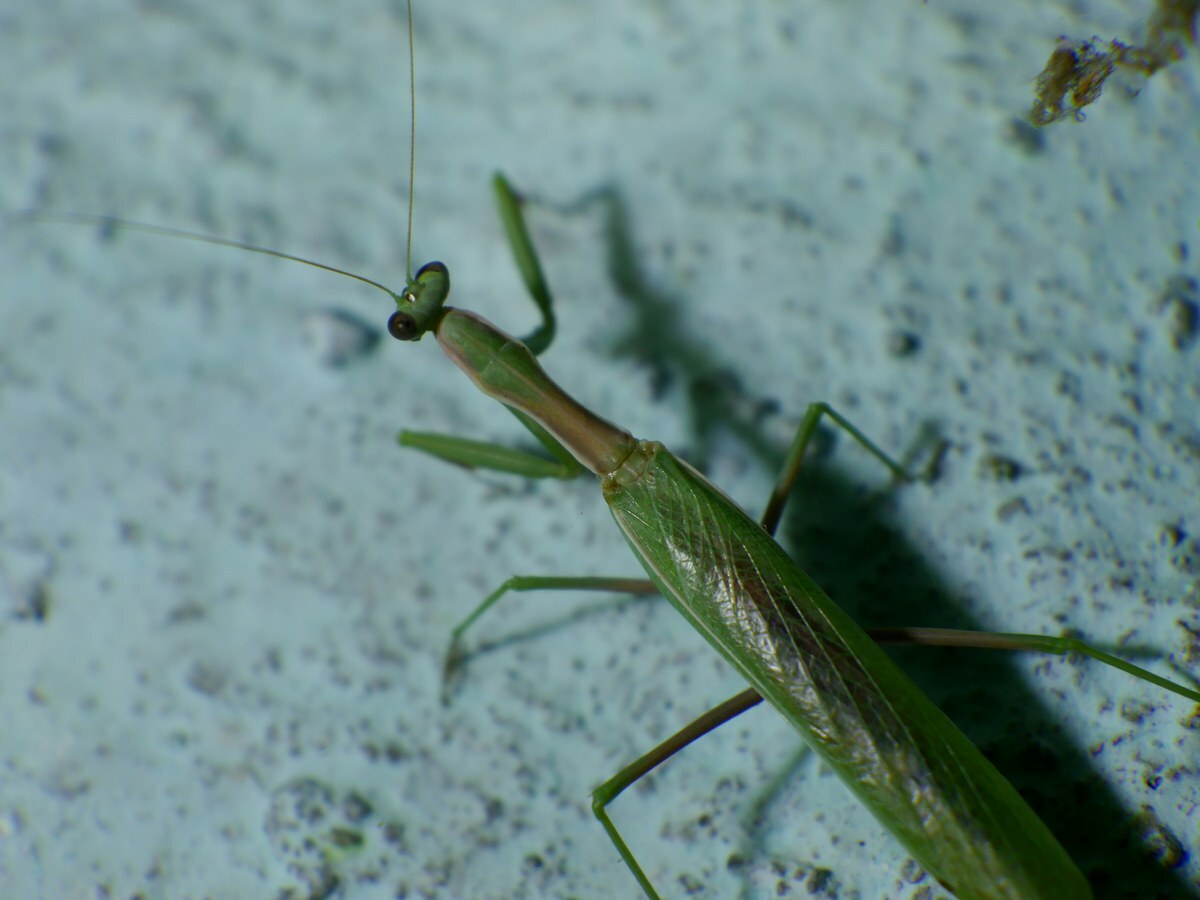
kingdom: Animalia
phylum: Arthropoda
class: Insecta
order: Mantodea
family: Eremiaphilidae
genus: Iris
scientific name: Iris polystictica
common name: Dot-winged mantis
